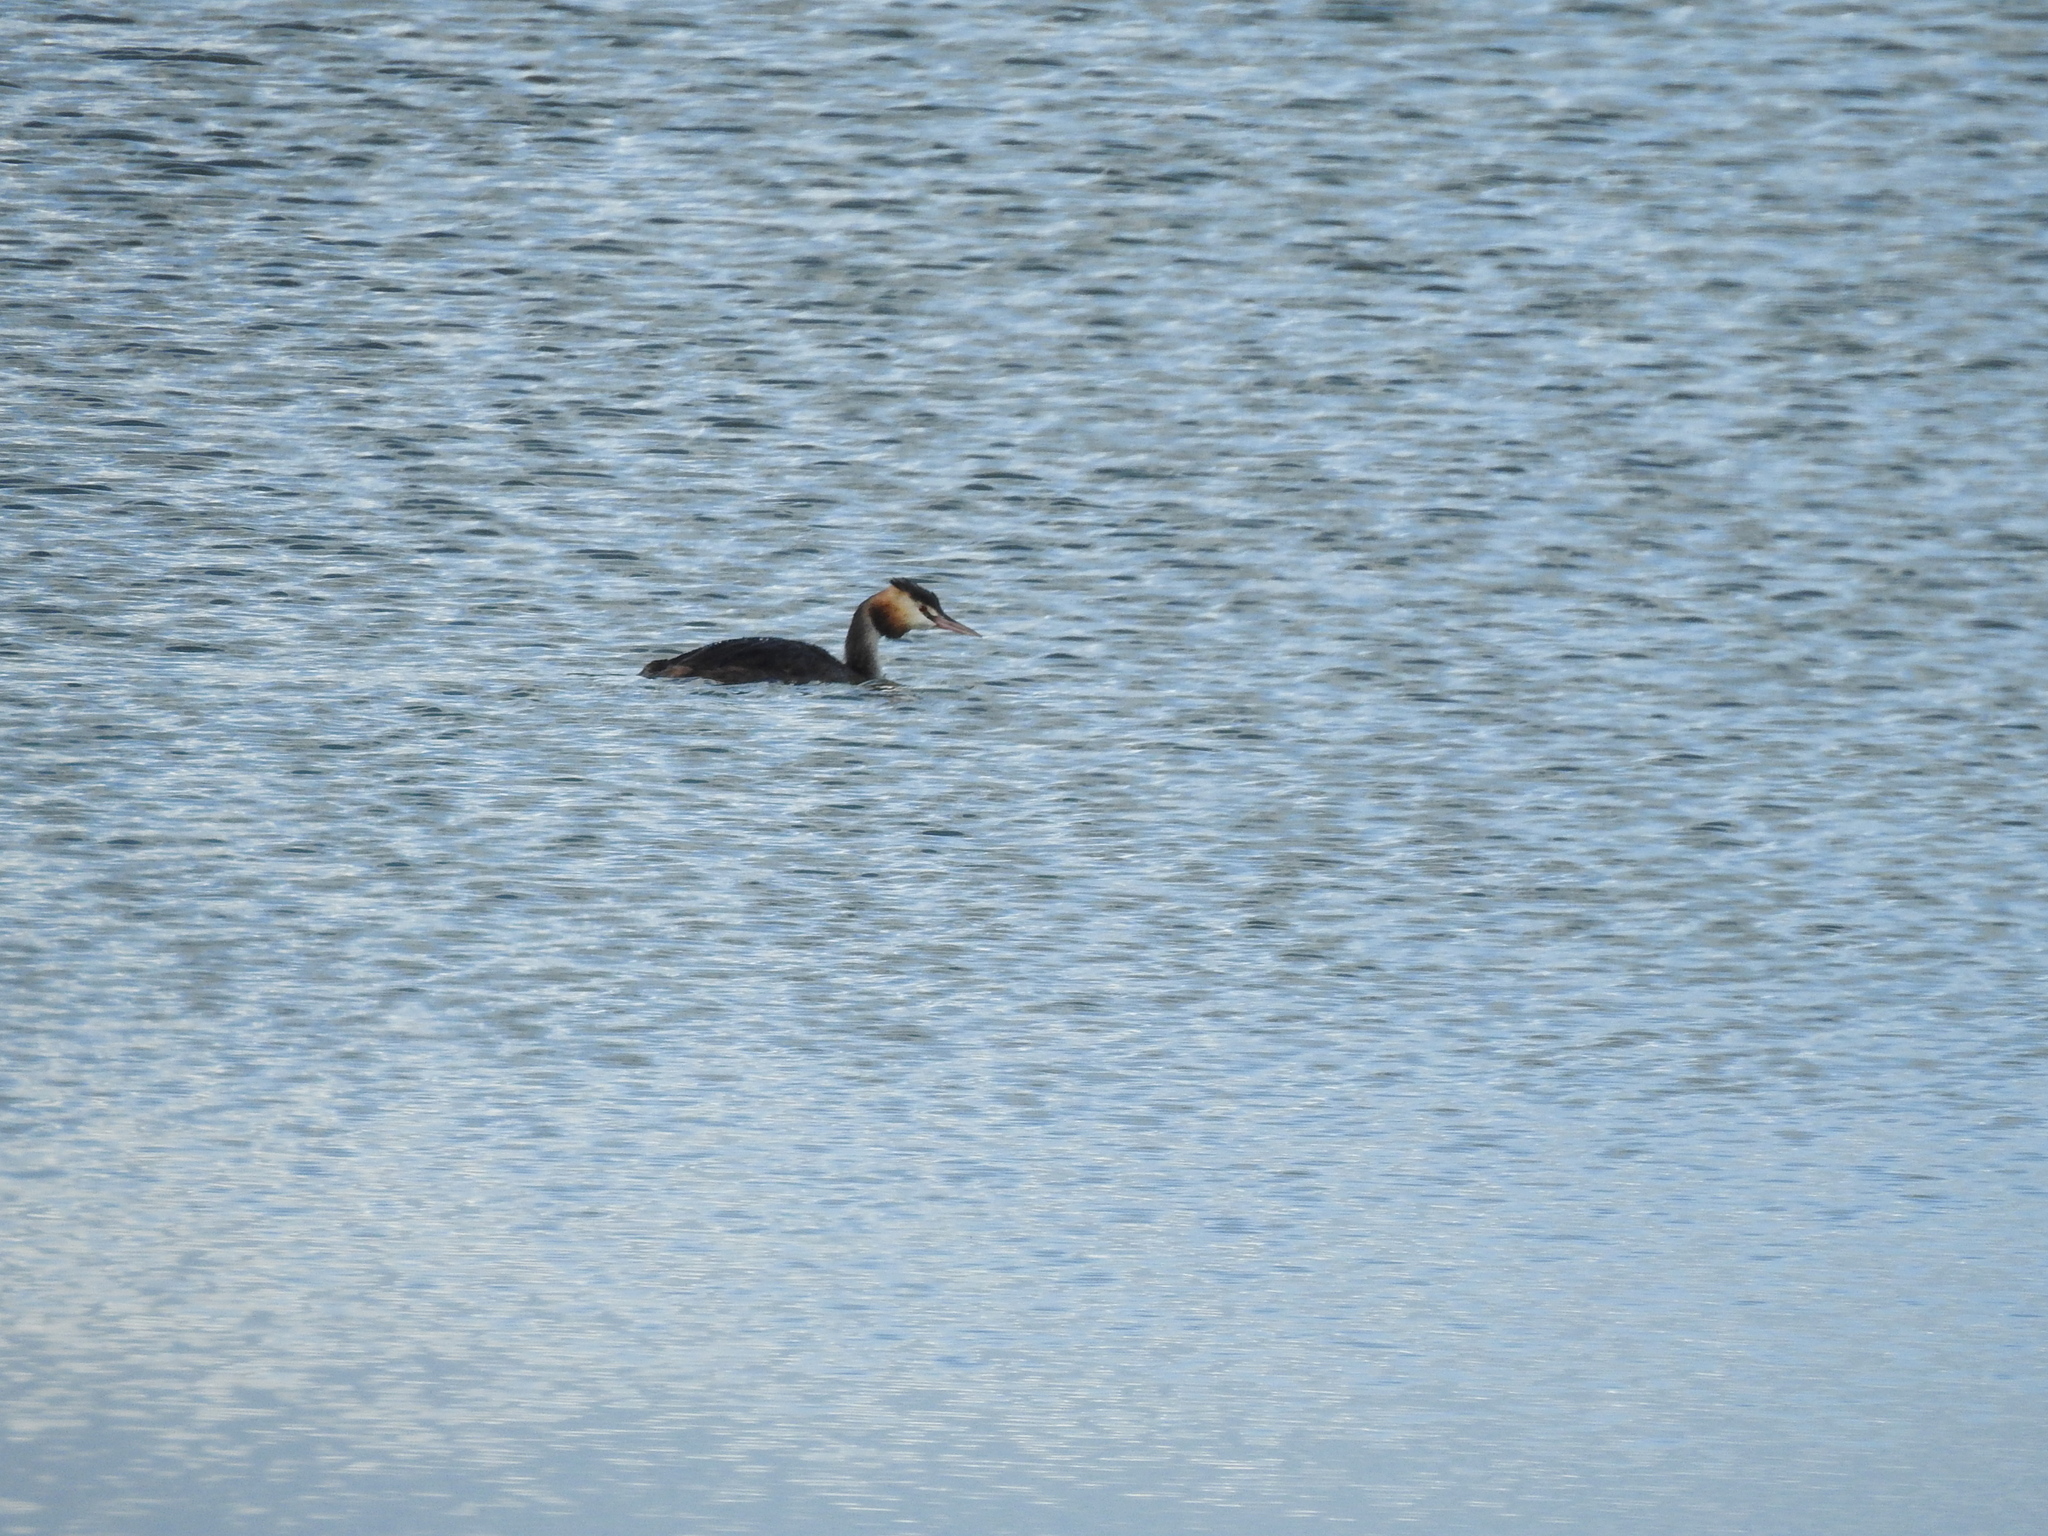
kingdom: Animalia
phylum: Chordata
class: Aves
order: Podicipediformes
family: Podicipedidae
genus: Podiceps
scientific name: Podiceps cristatus
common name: Great crested grebe
